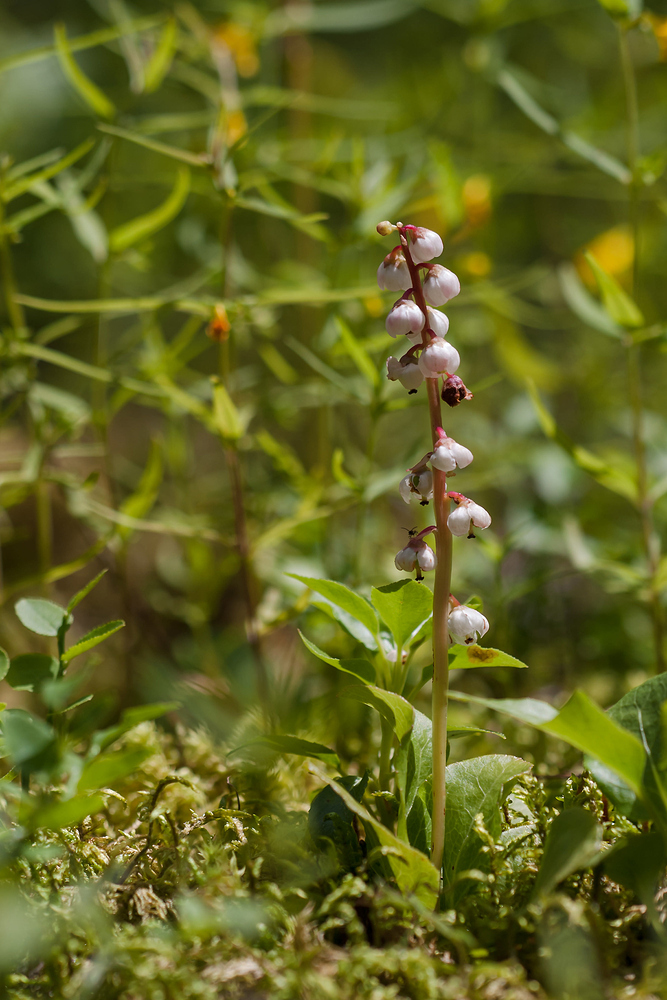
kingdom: Plantae
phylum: Tracheophyta
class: Magnoliopsida
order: Ericales
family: Ericaceae
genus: Pyrola
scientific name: Pyrola minor
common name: Common wintergreen
